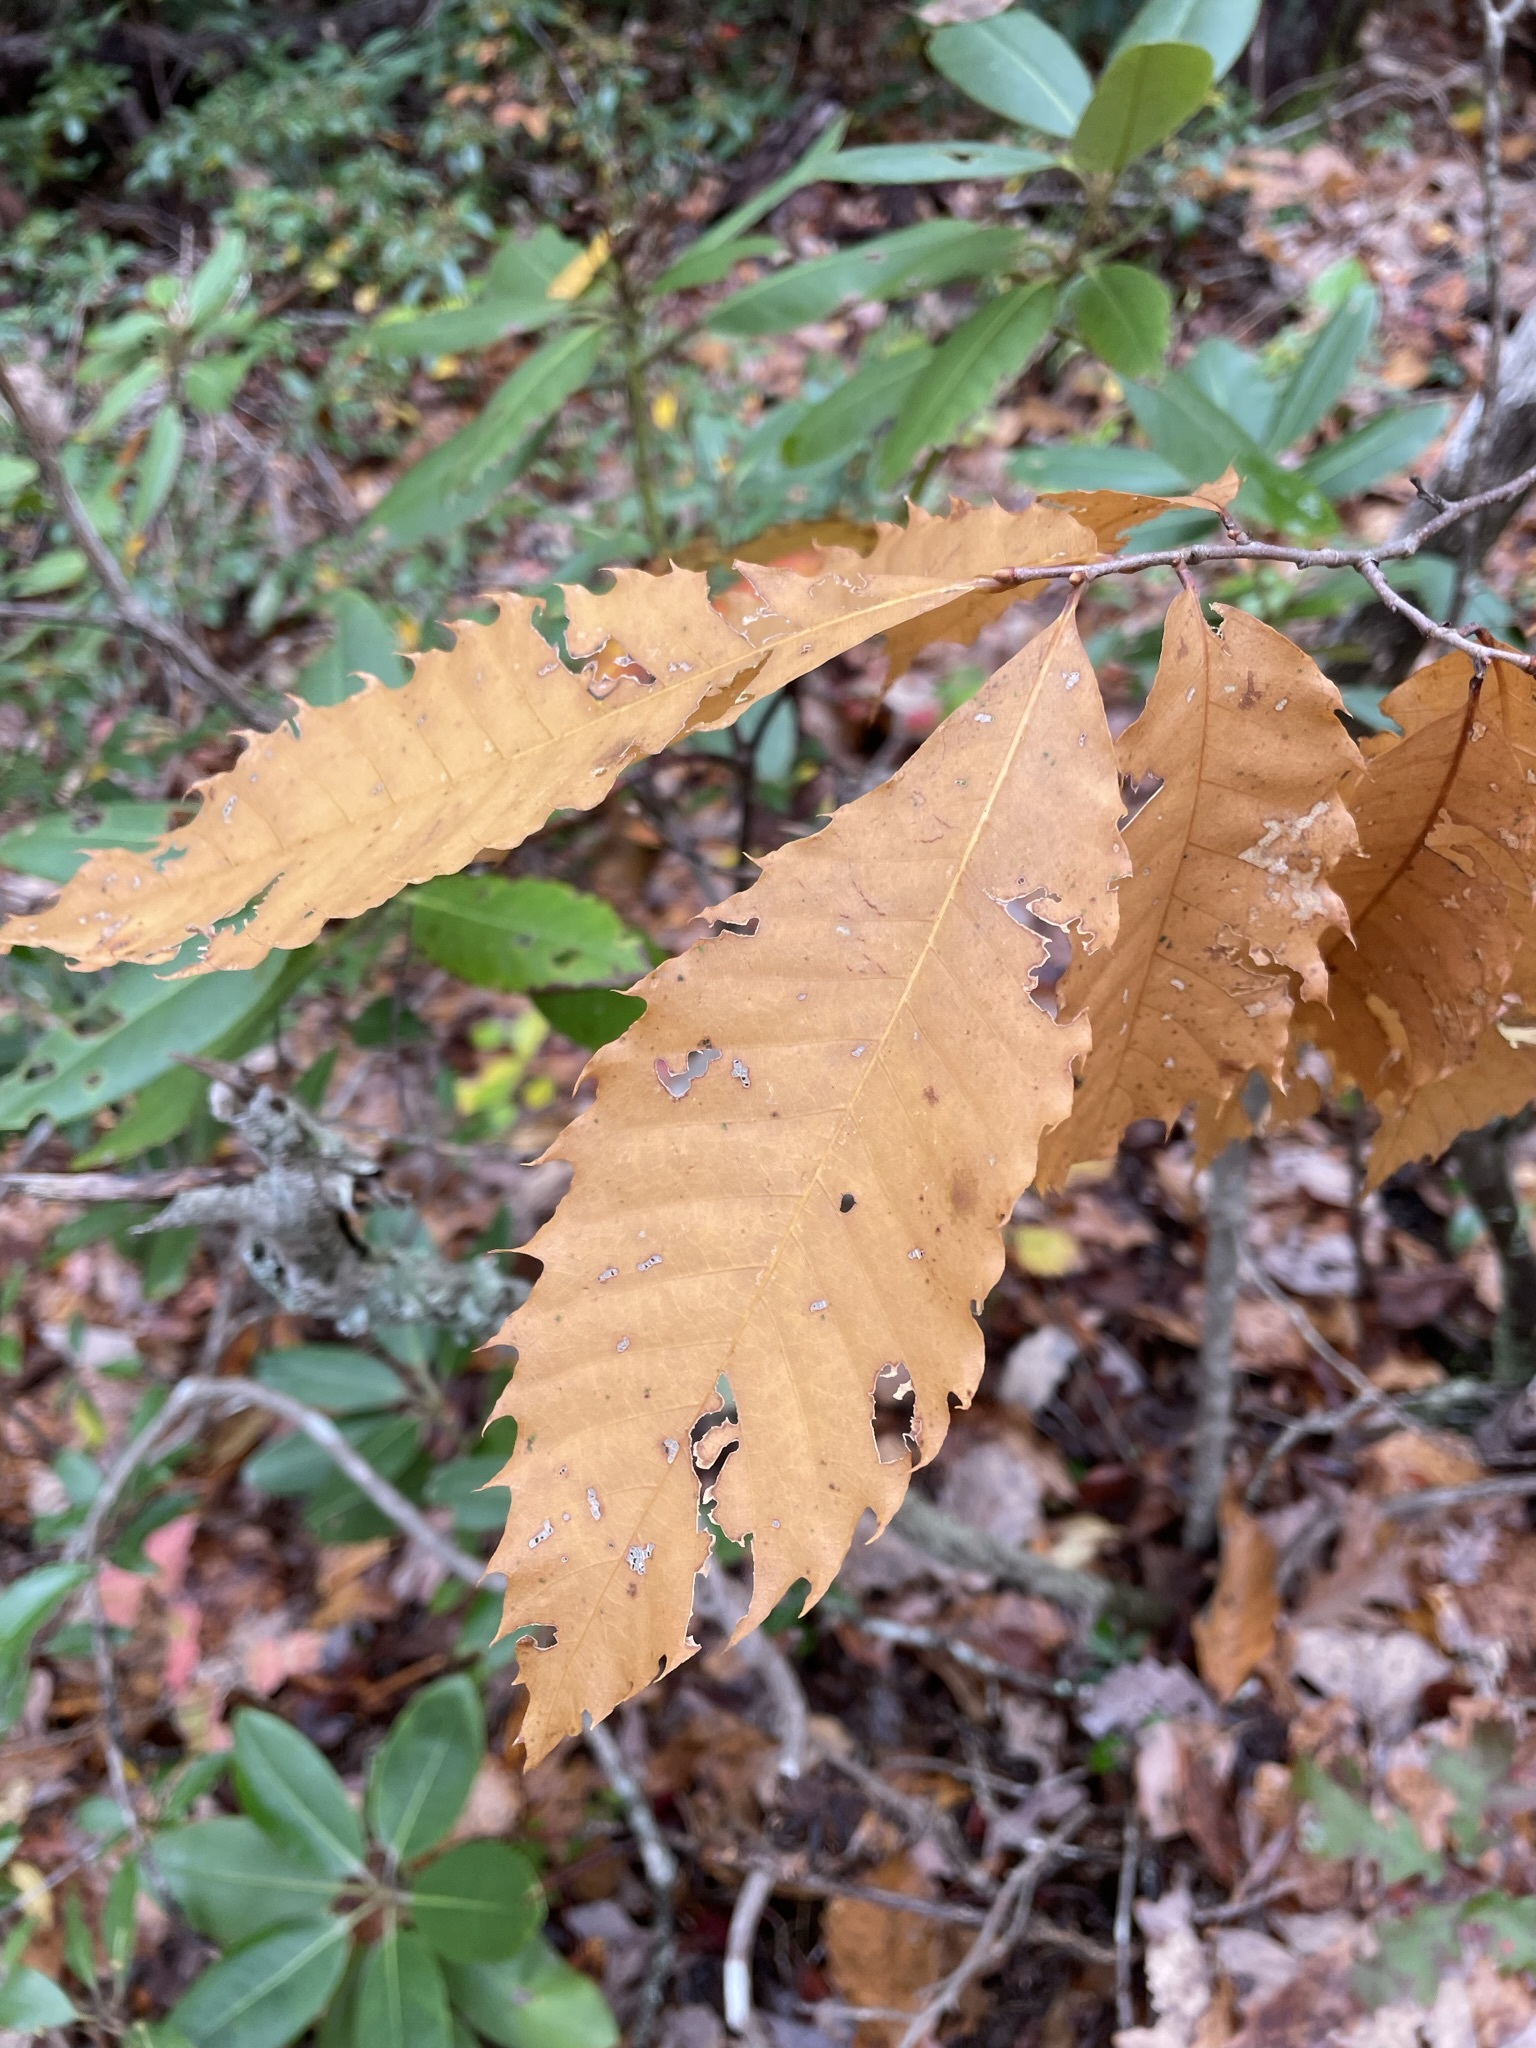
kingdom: Plantae
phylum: Tracheophyta
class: Magnoliopsida
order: Fagales
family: Fagaceae
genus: Castanea
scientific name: Castanea dentata
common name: American chestnut
